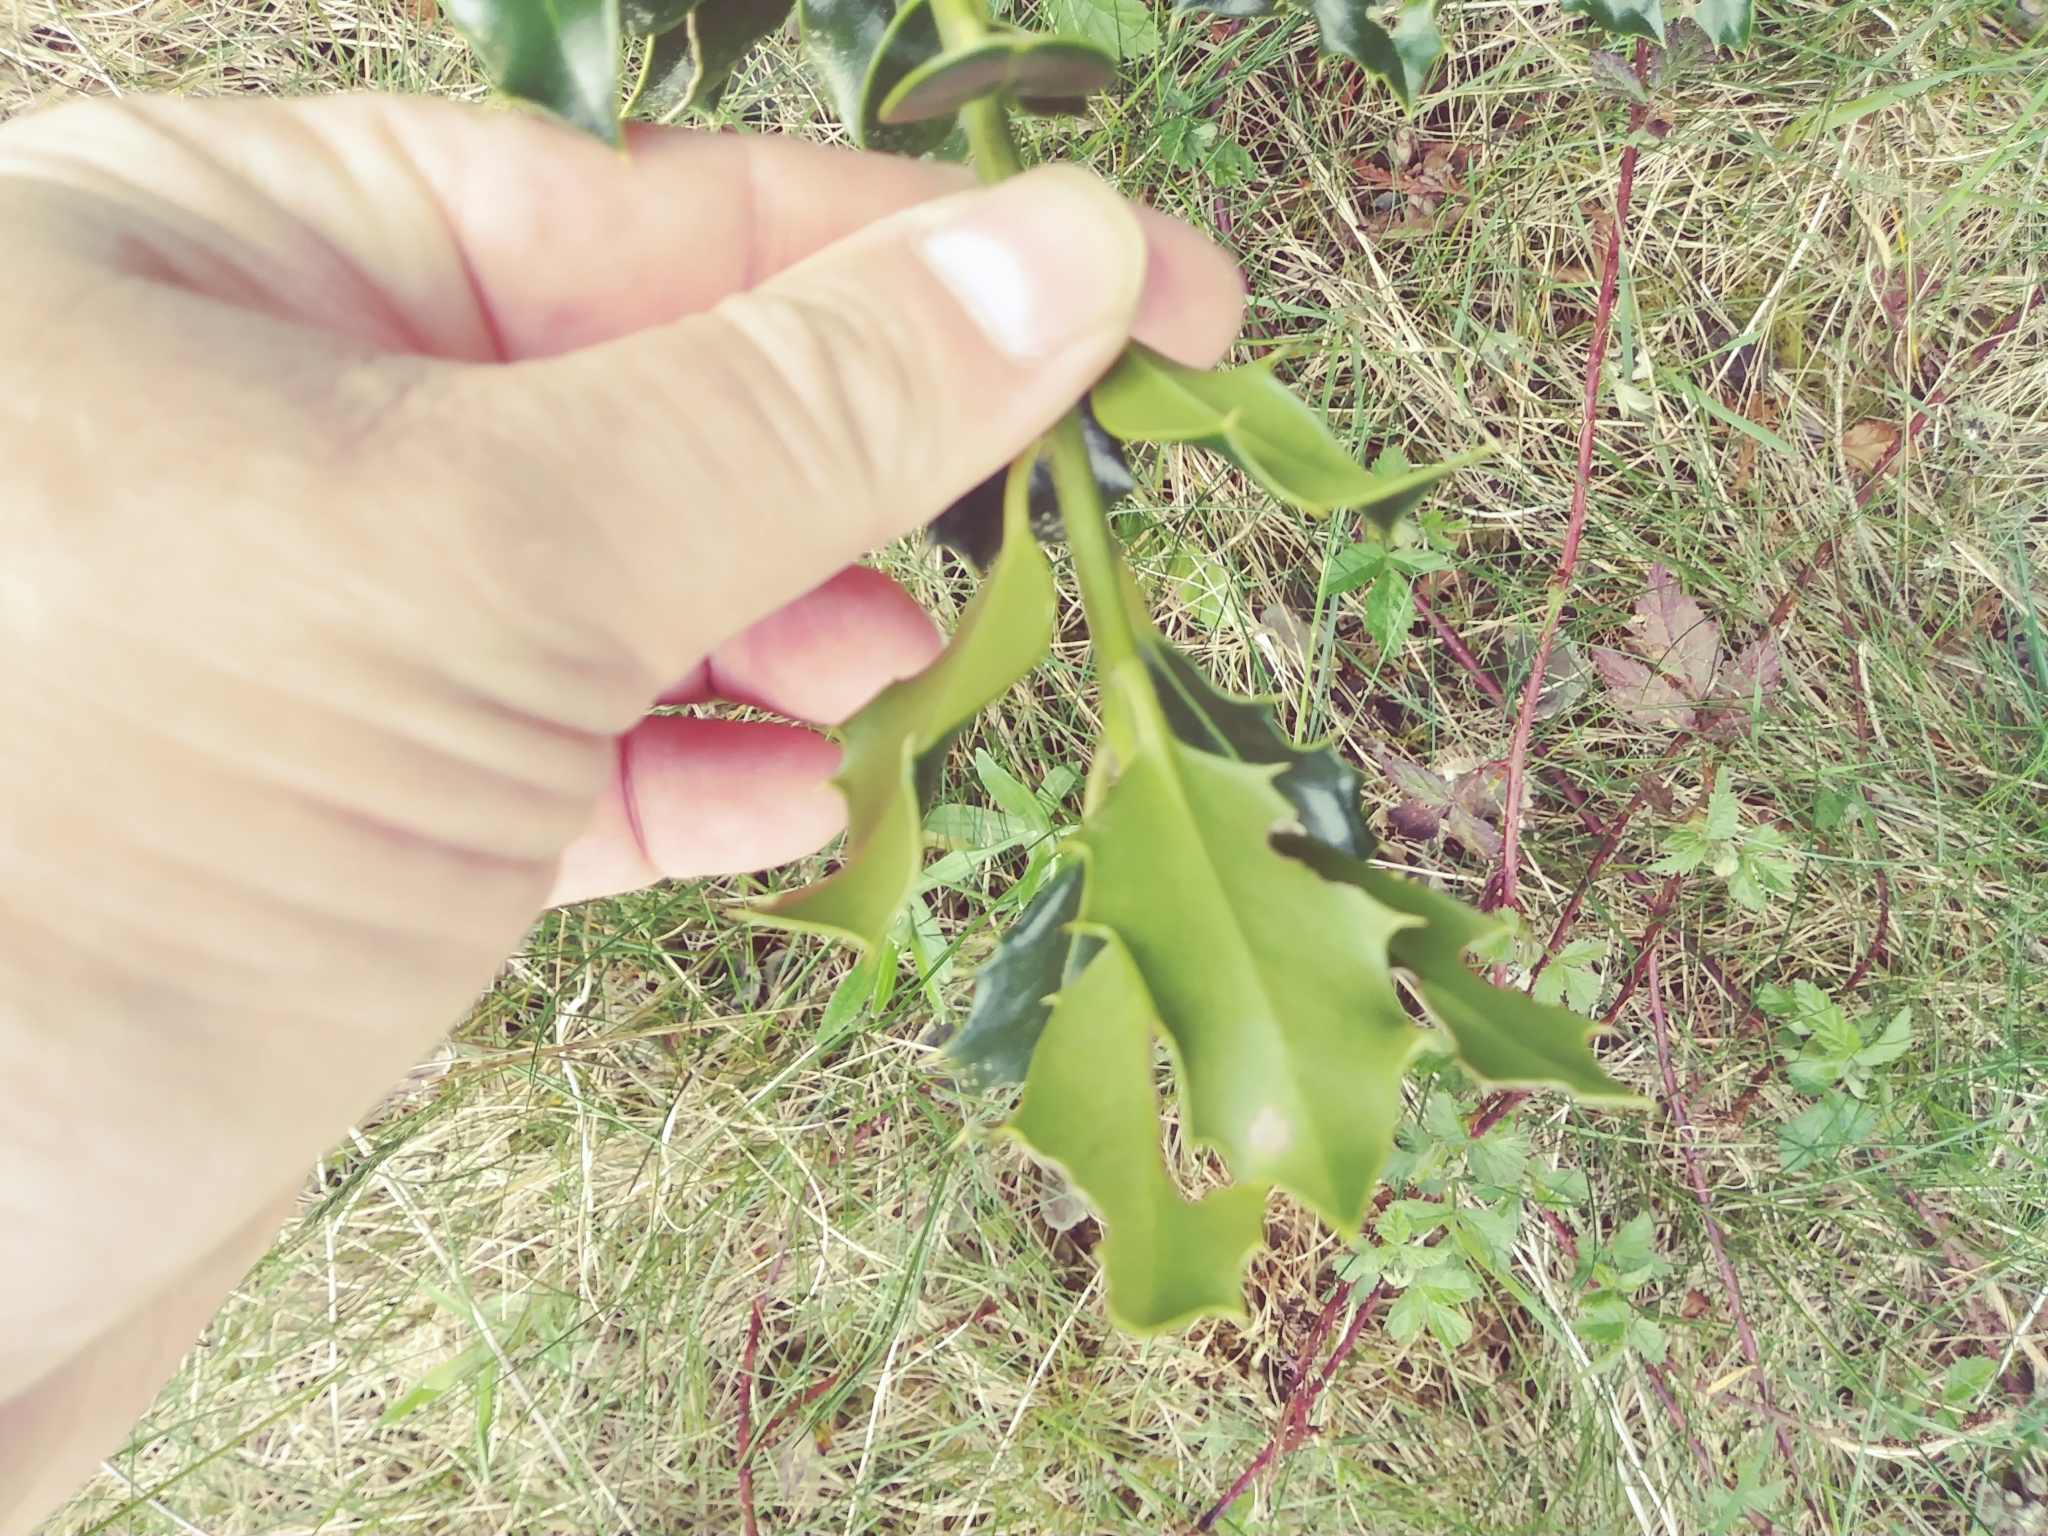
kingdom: Plantae
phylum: Tracheophyta
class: Magnoliopsida
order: Aquifoliales
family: Aquifoliaceae
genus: Ilex
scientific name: Ilex aquifolium
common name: English holly
